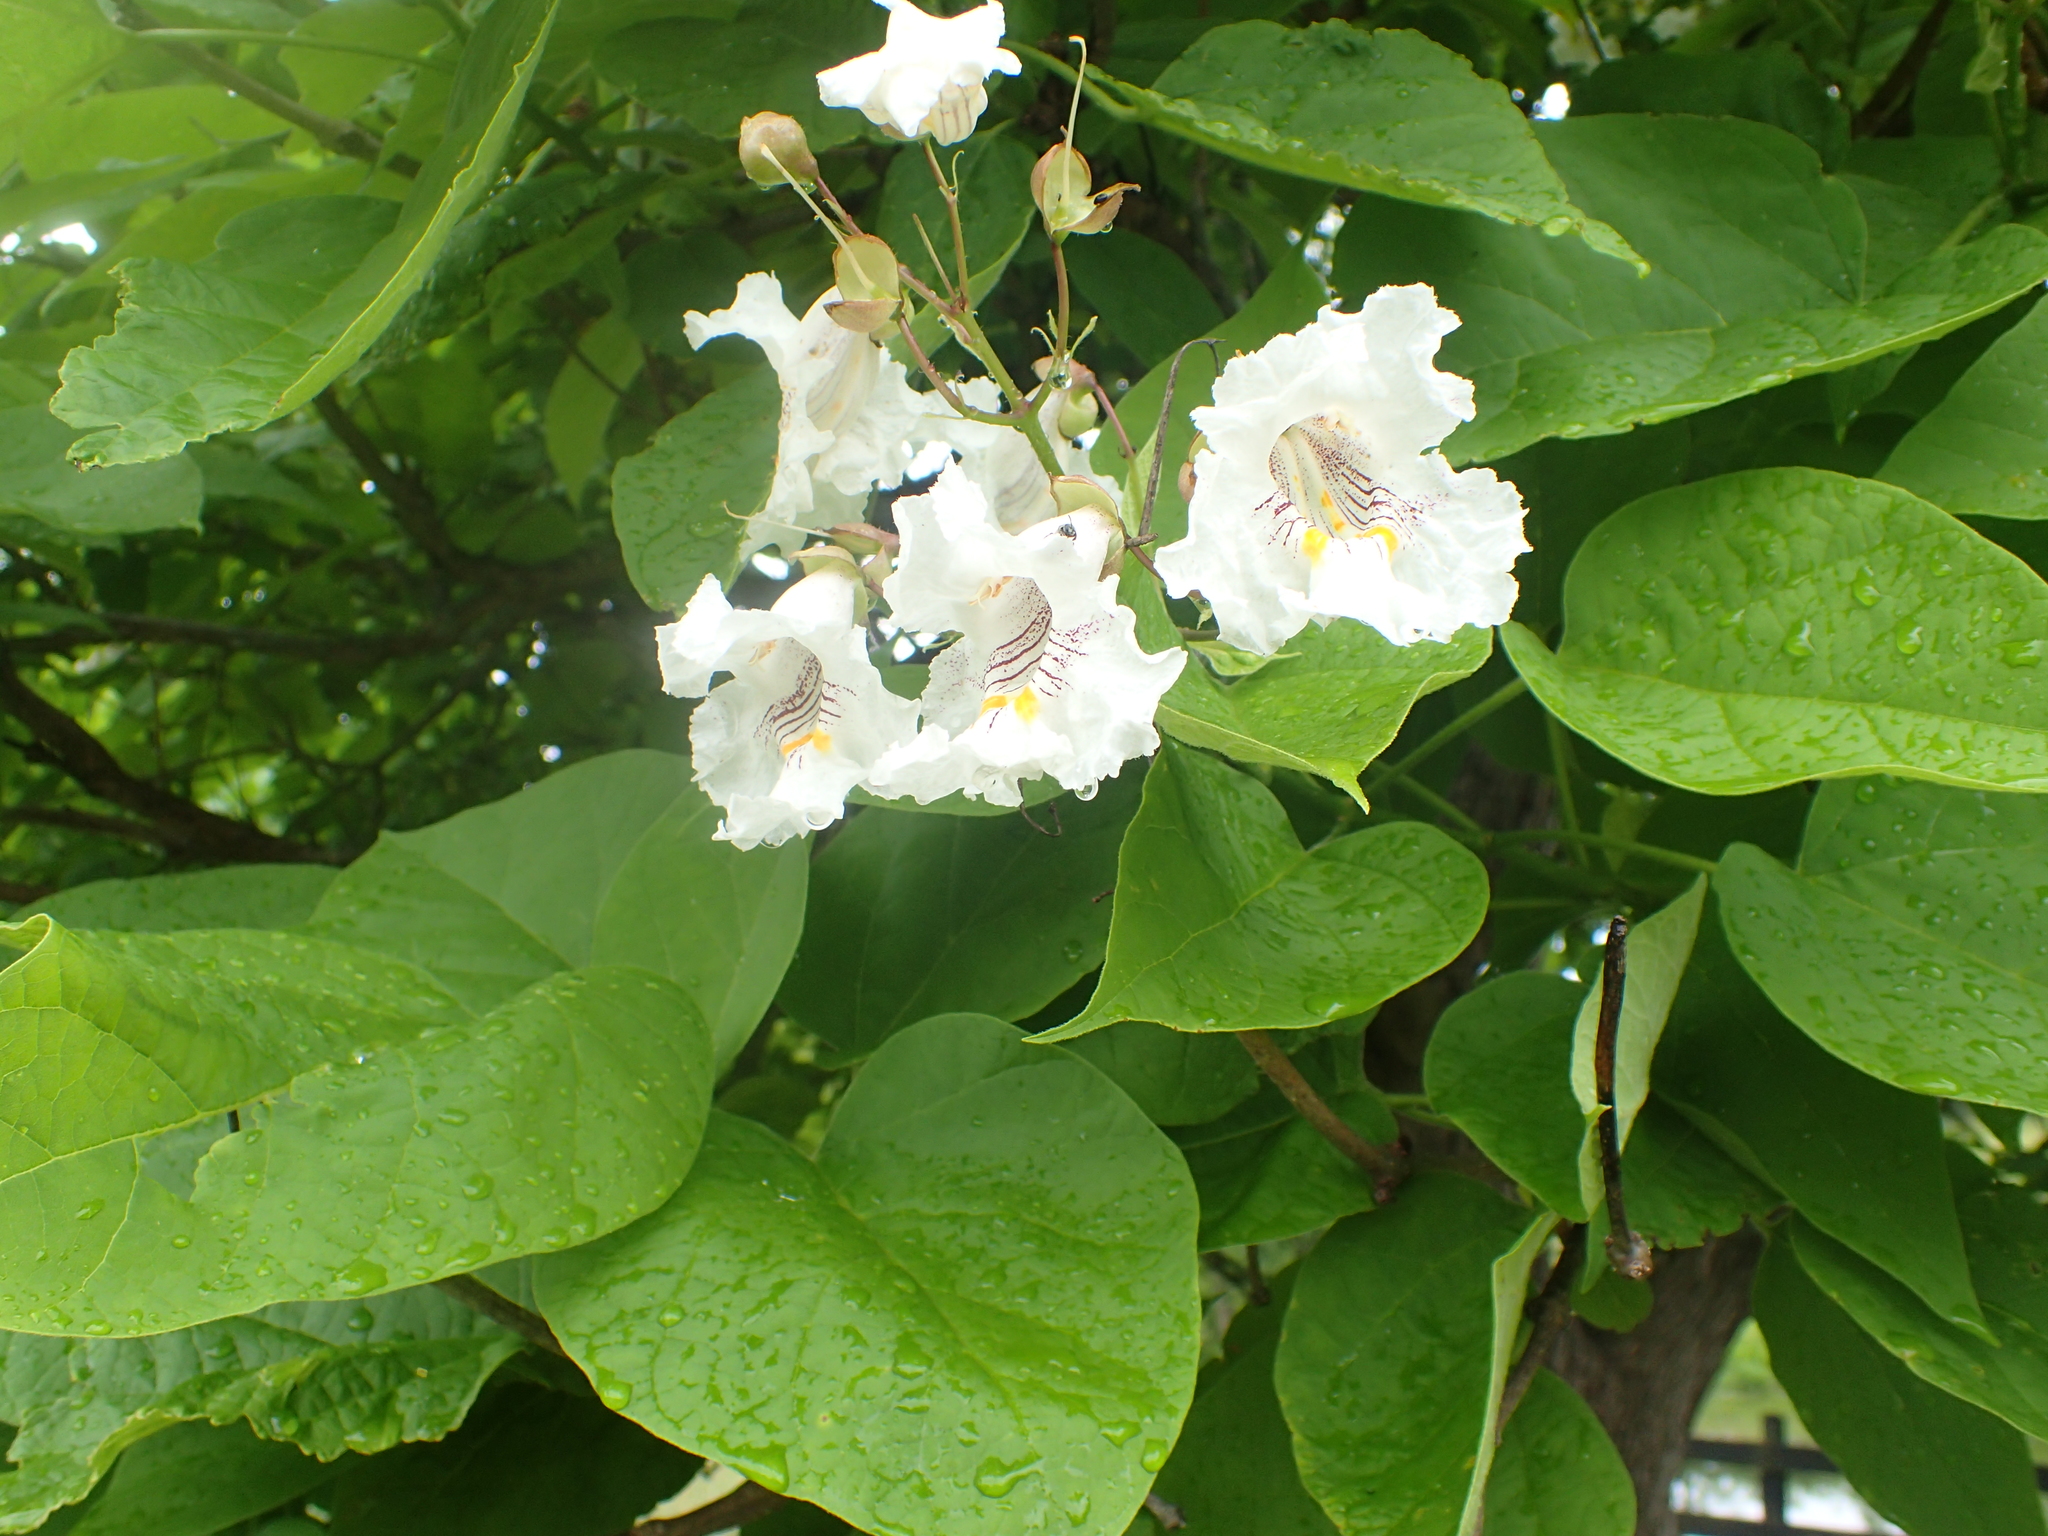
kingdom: Plantae
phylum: Tracheophyta
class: Magnoliopsida
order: Lamiales
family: Bignoniaceae
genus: Catalpa
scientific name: Catalpa speciosa
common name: Northern catalpa
